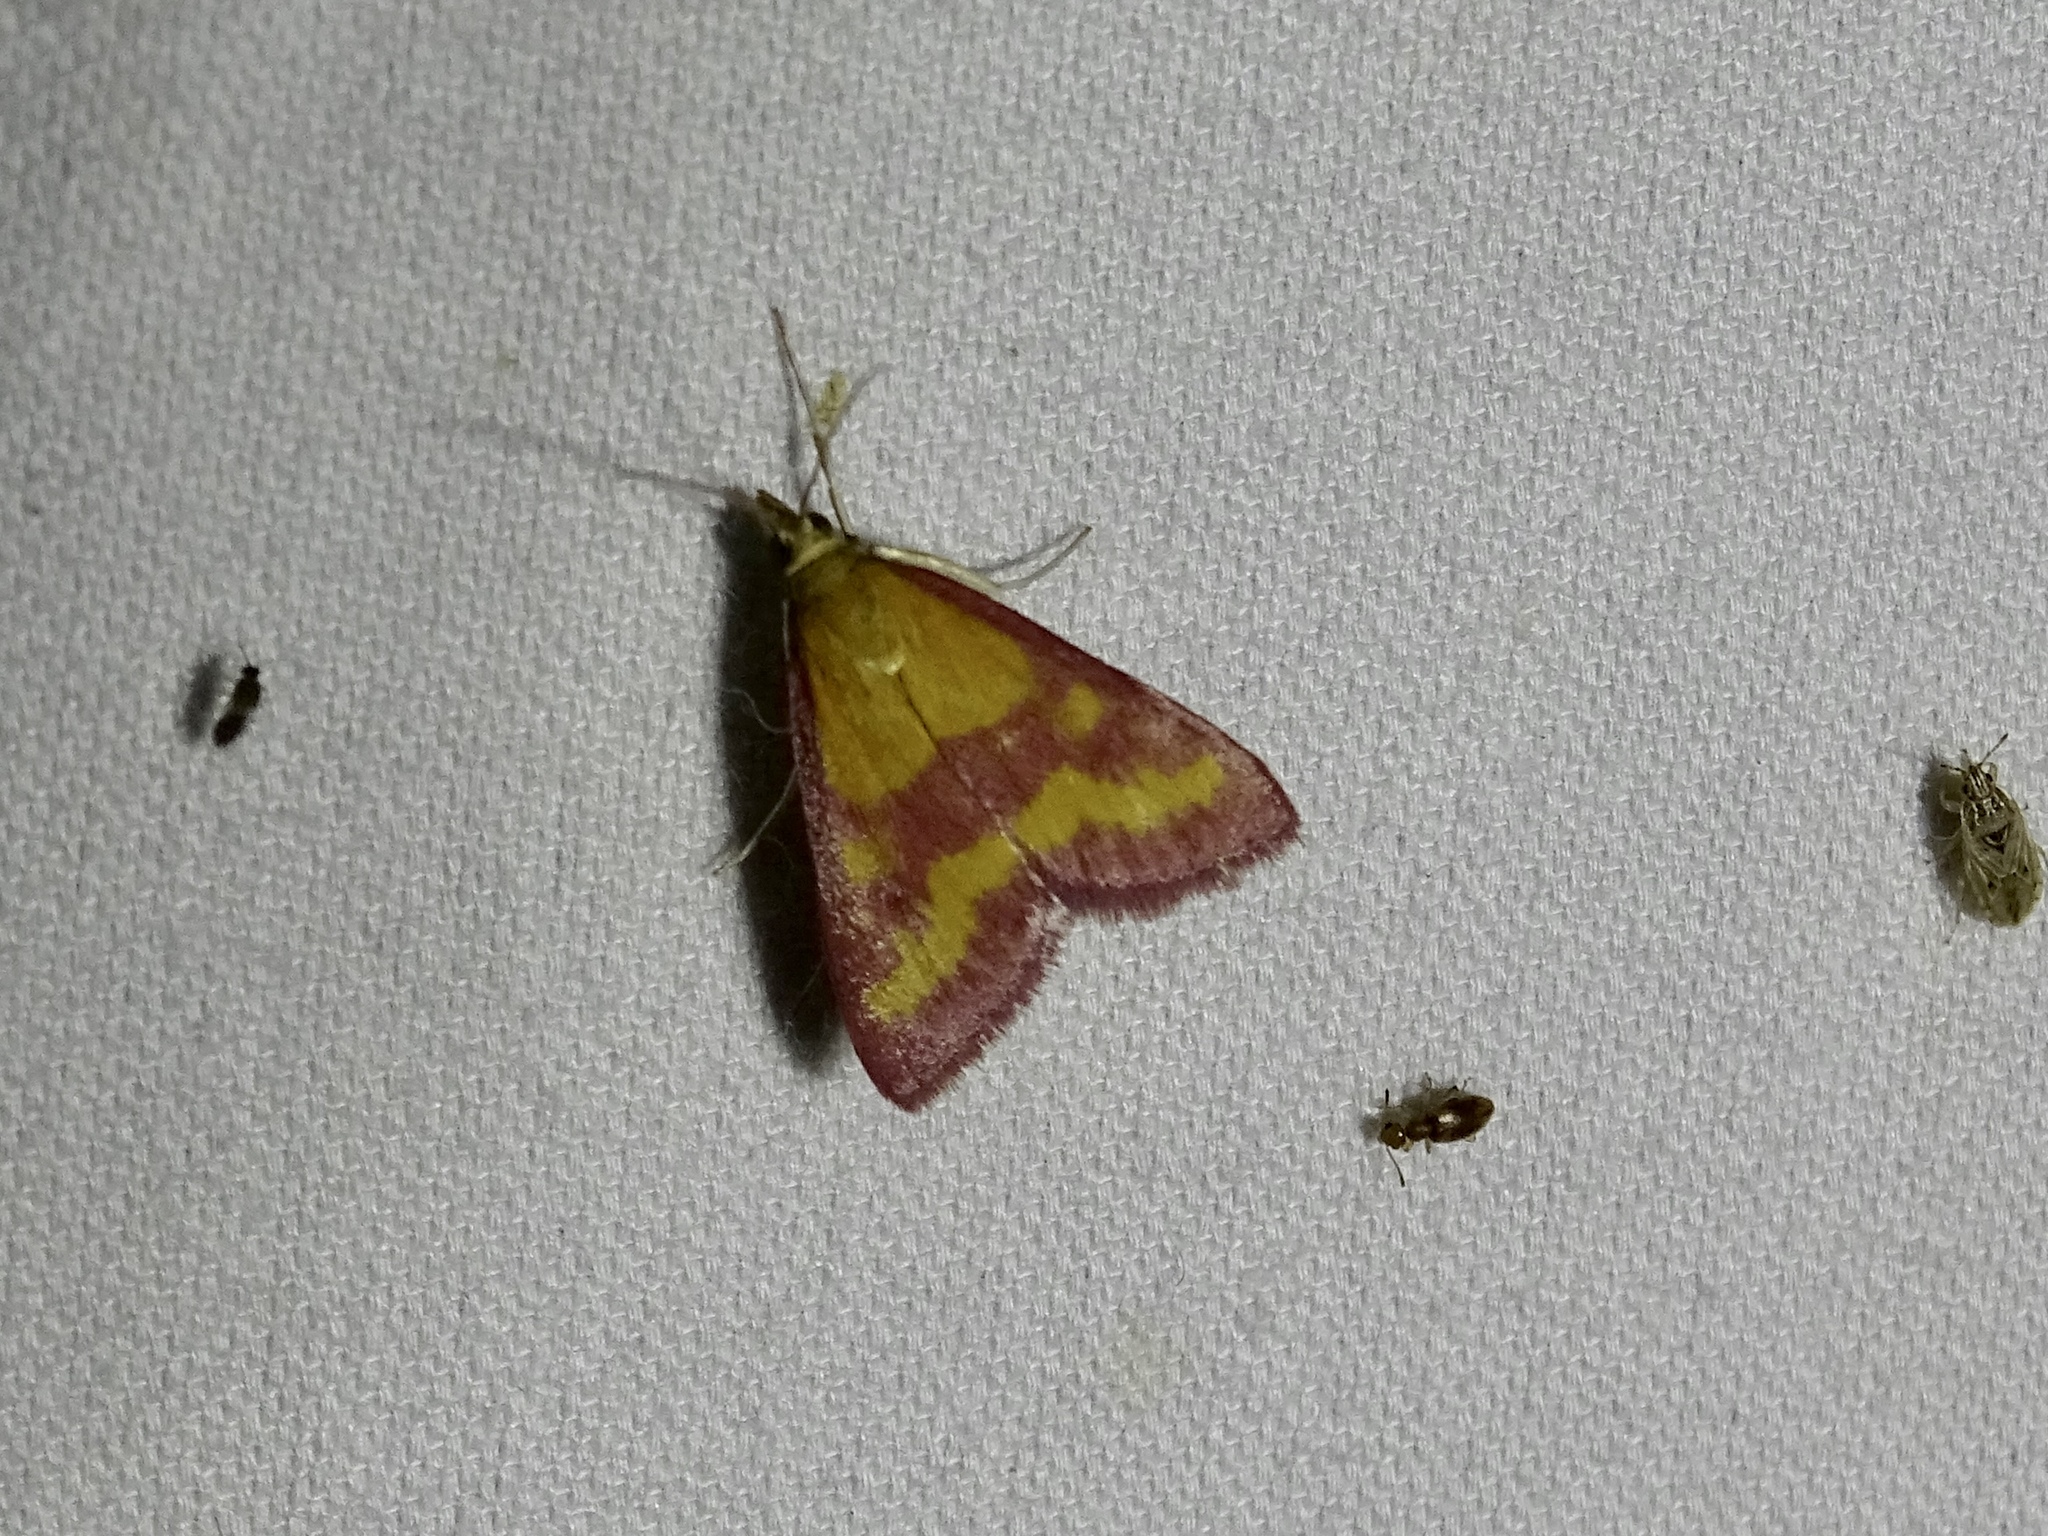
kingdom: Animalia
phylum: Arthropoda
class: Insecta
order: Lepidoptera
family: Crambidae
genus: Pyrausta
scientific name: Pyrausta laticlavia
